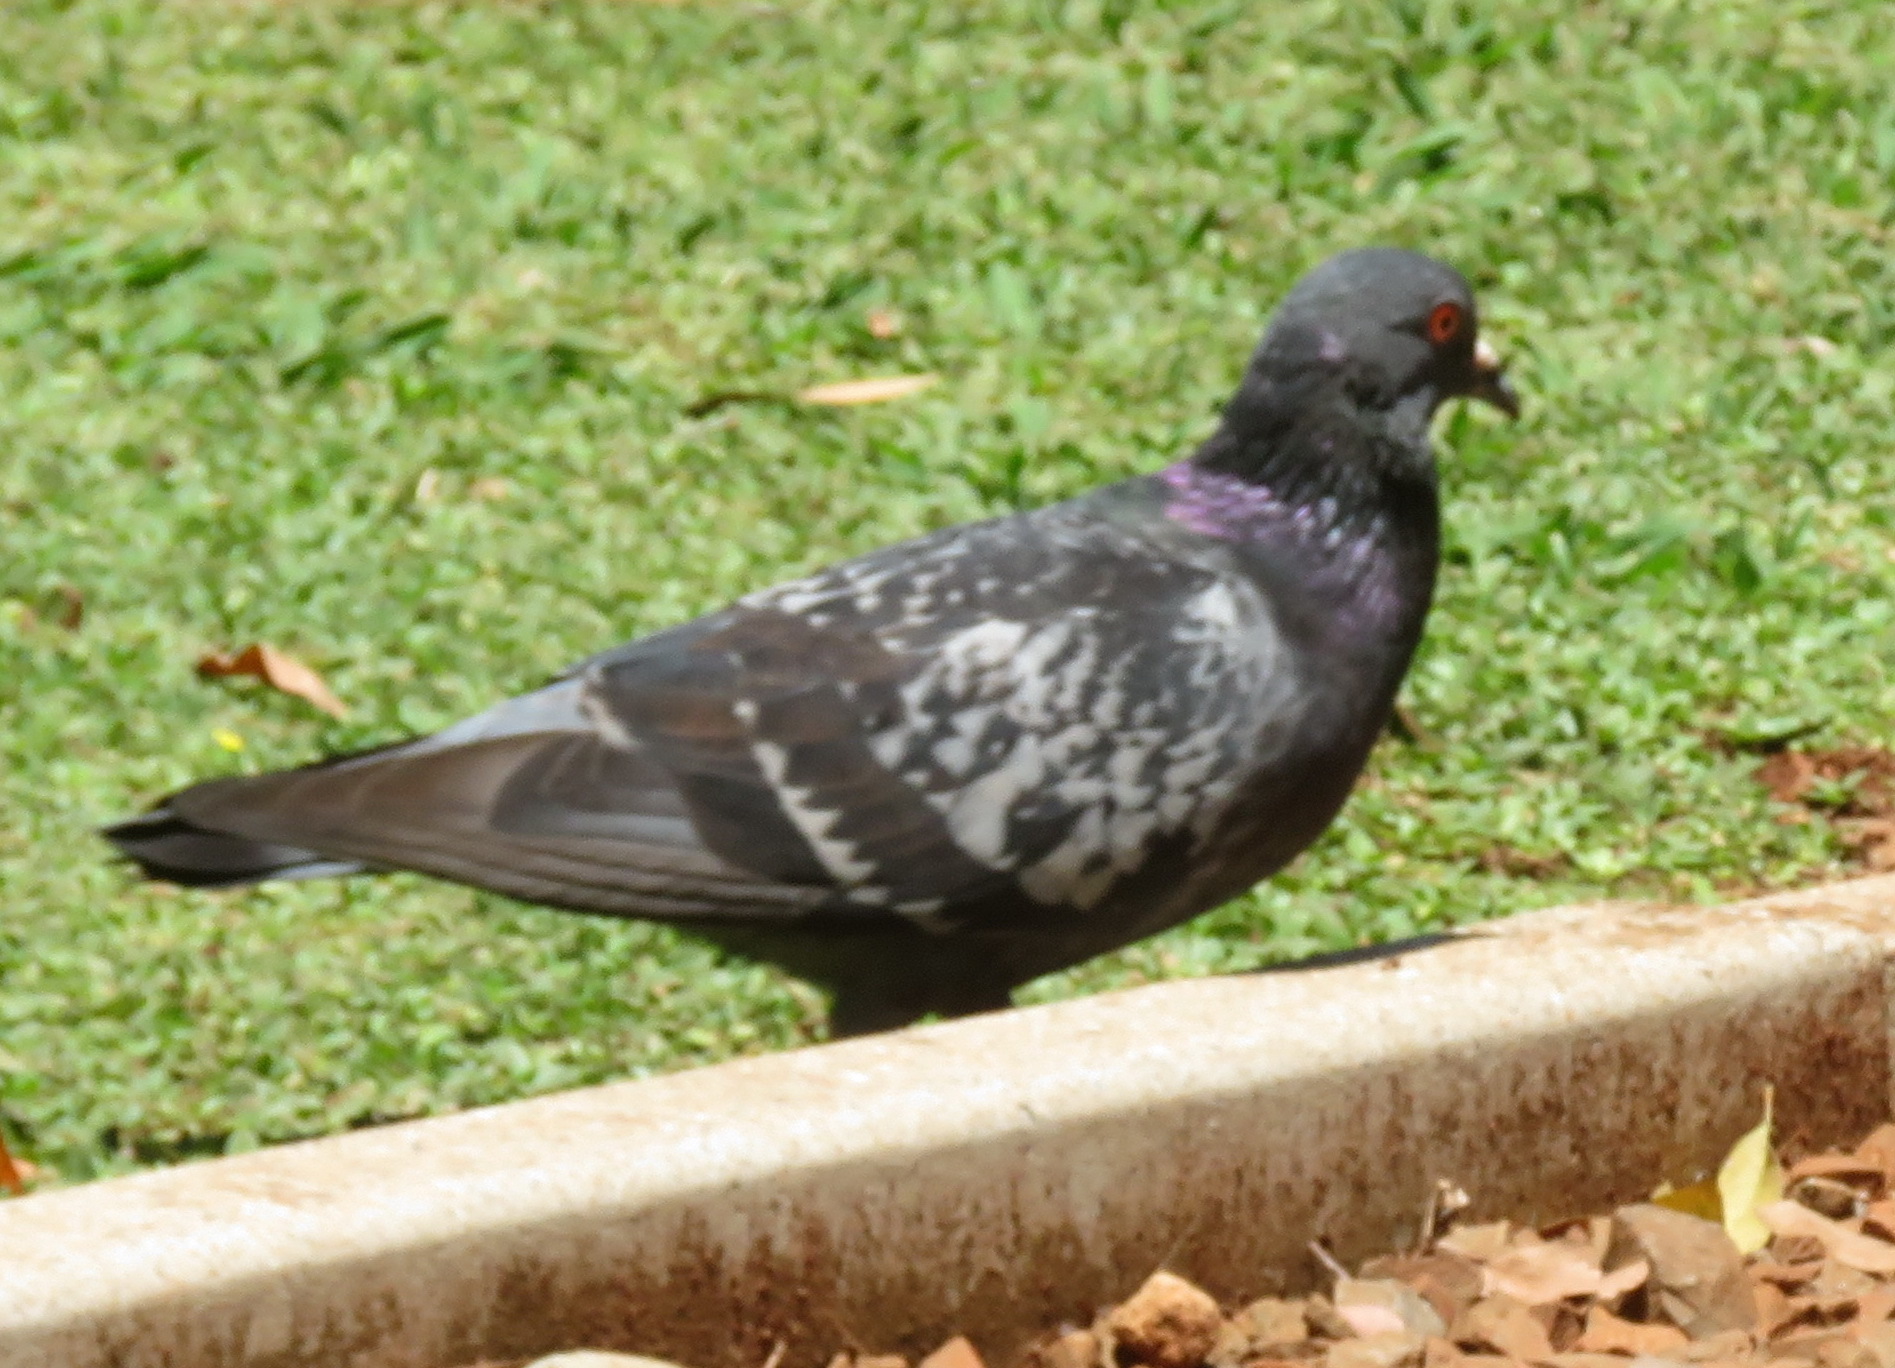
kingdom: Animalia
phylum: Chordata
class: Aves
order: Columbiformes
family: Columbidae
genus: Columba
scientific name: Columba livia
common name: Rock pigeon
